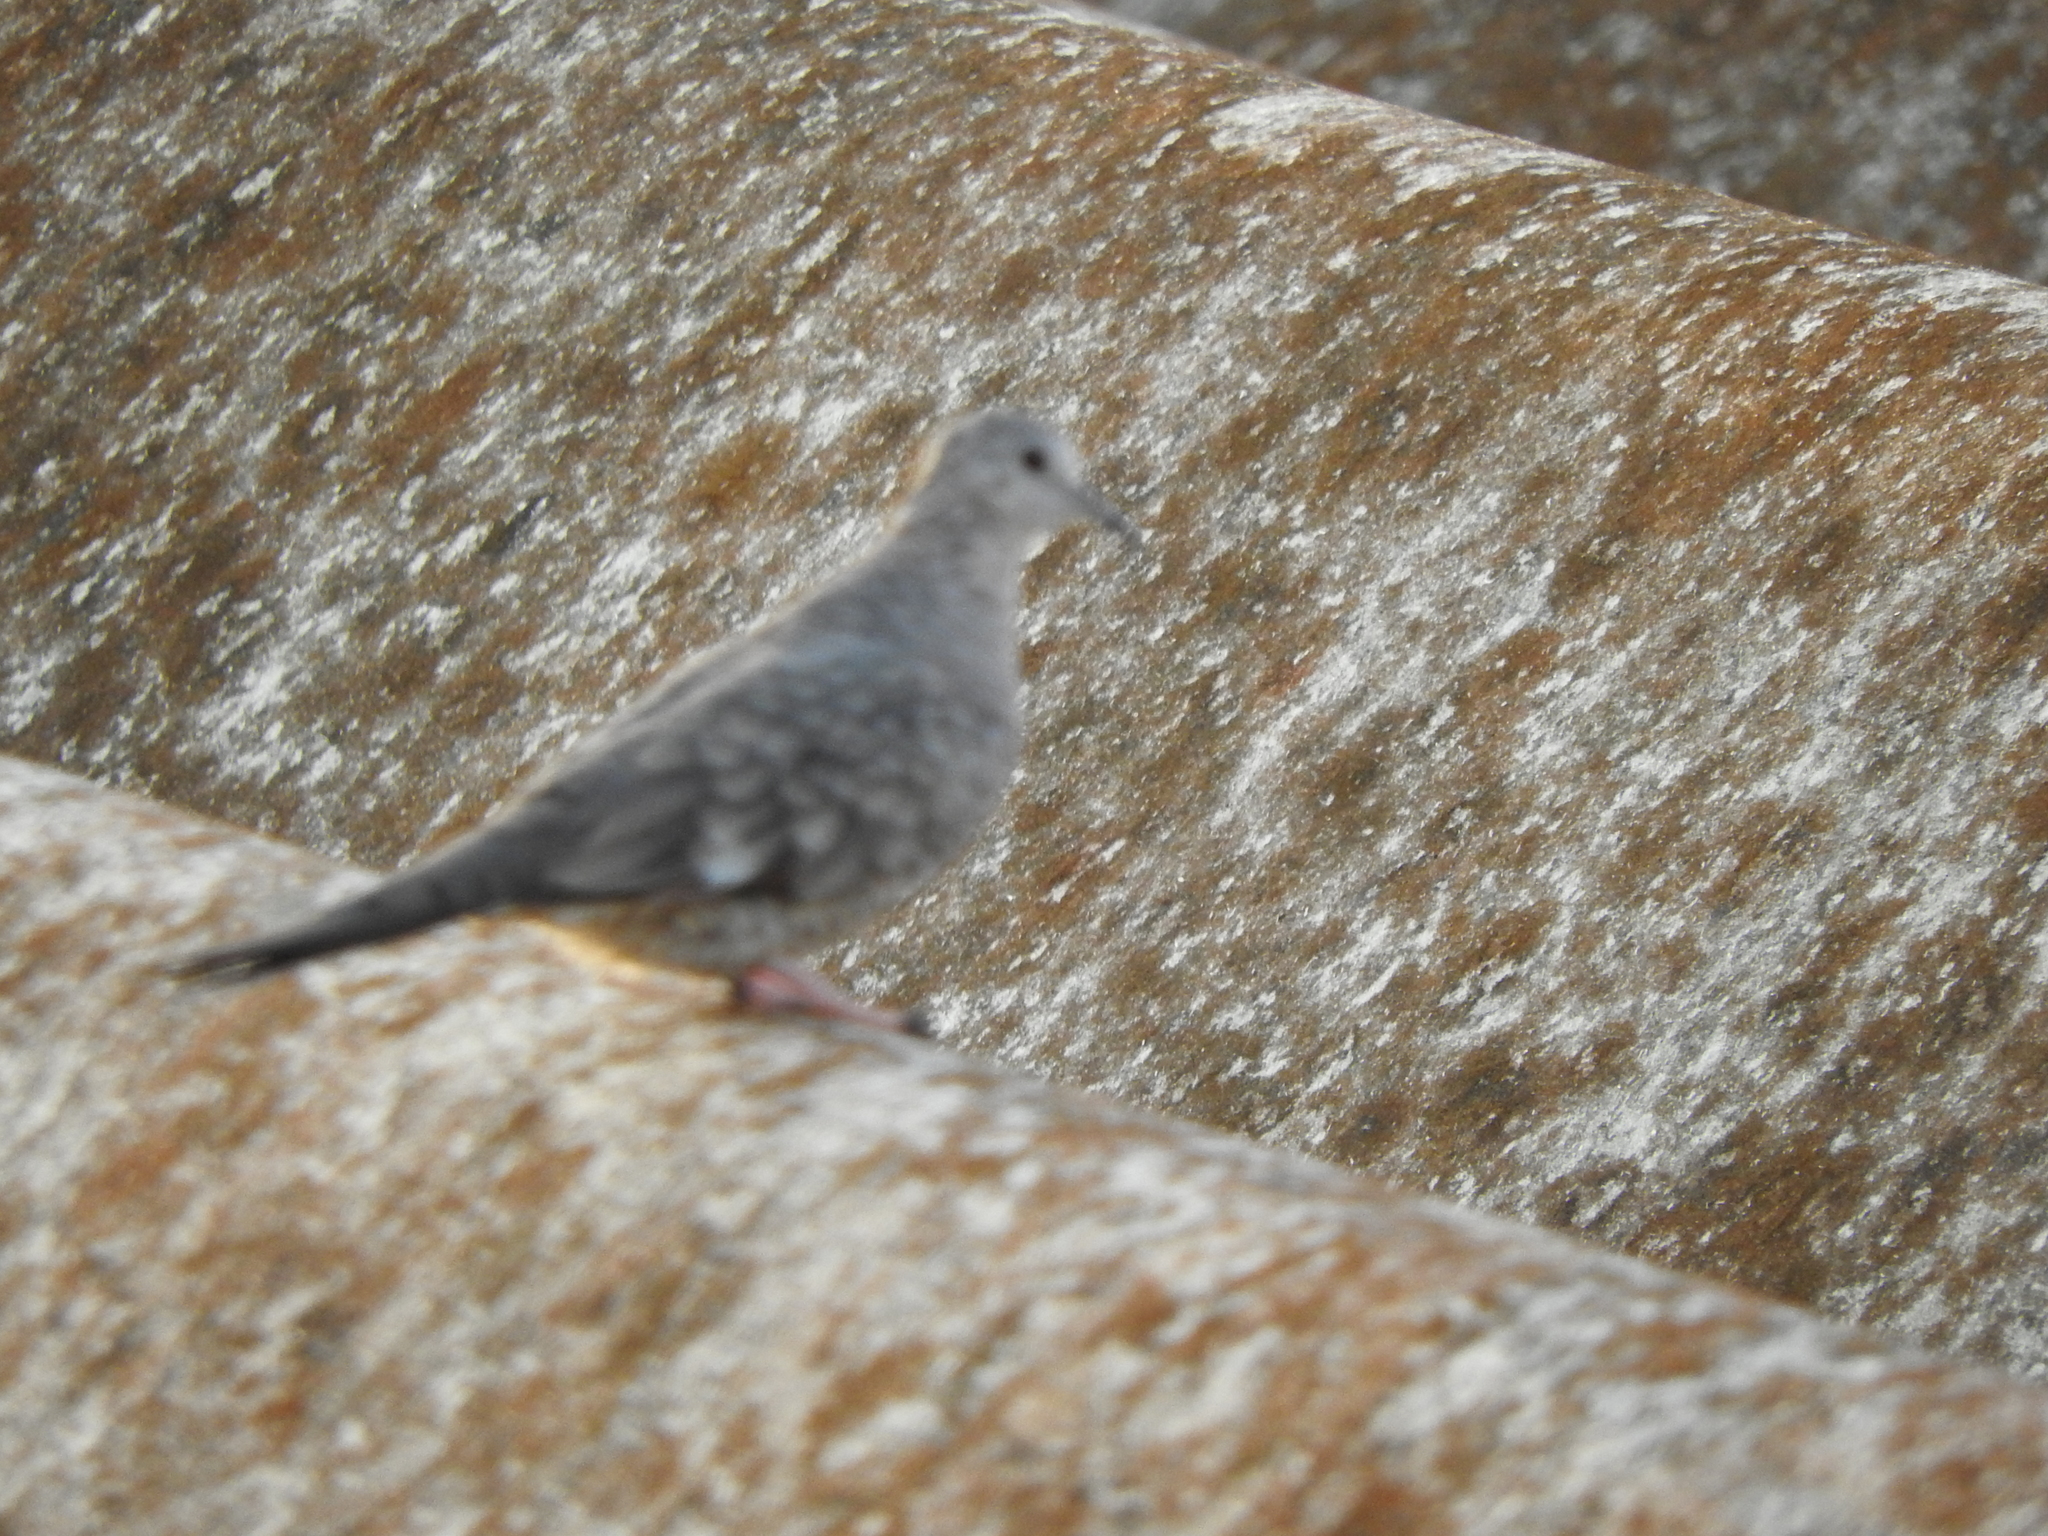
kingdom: Animalia
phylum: Chordata
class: Aves
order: Columbiformes
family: Columbidae
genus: Columbina
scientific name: Columbina inca
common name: Inca dove
